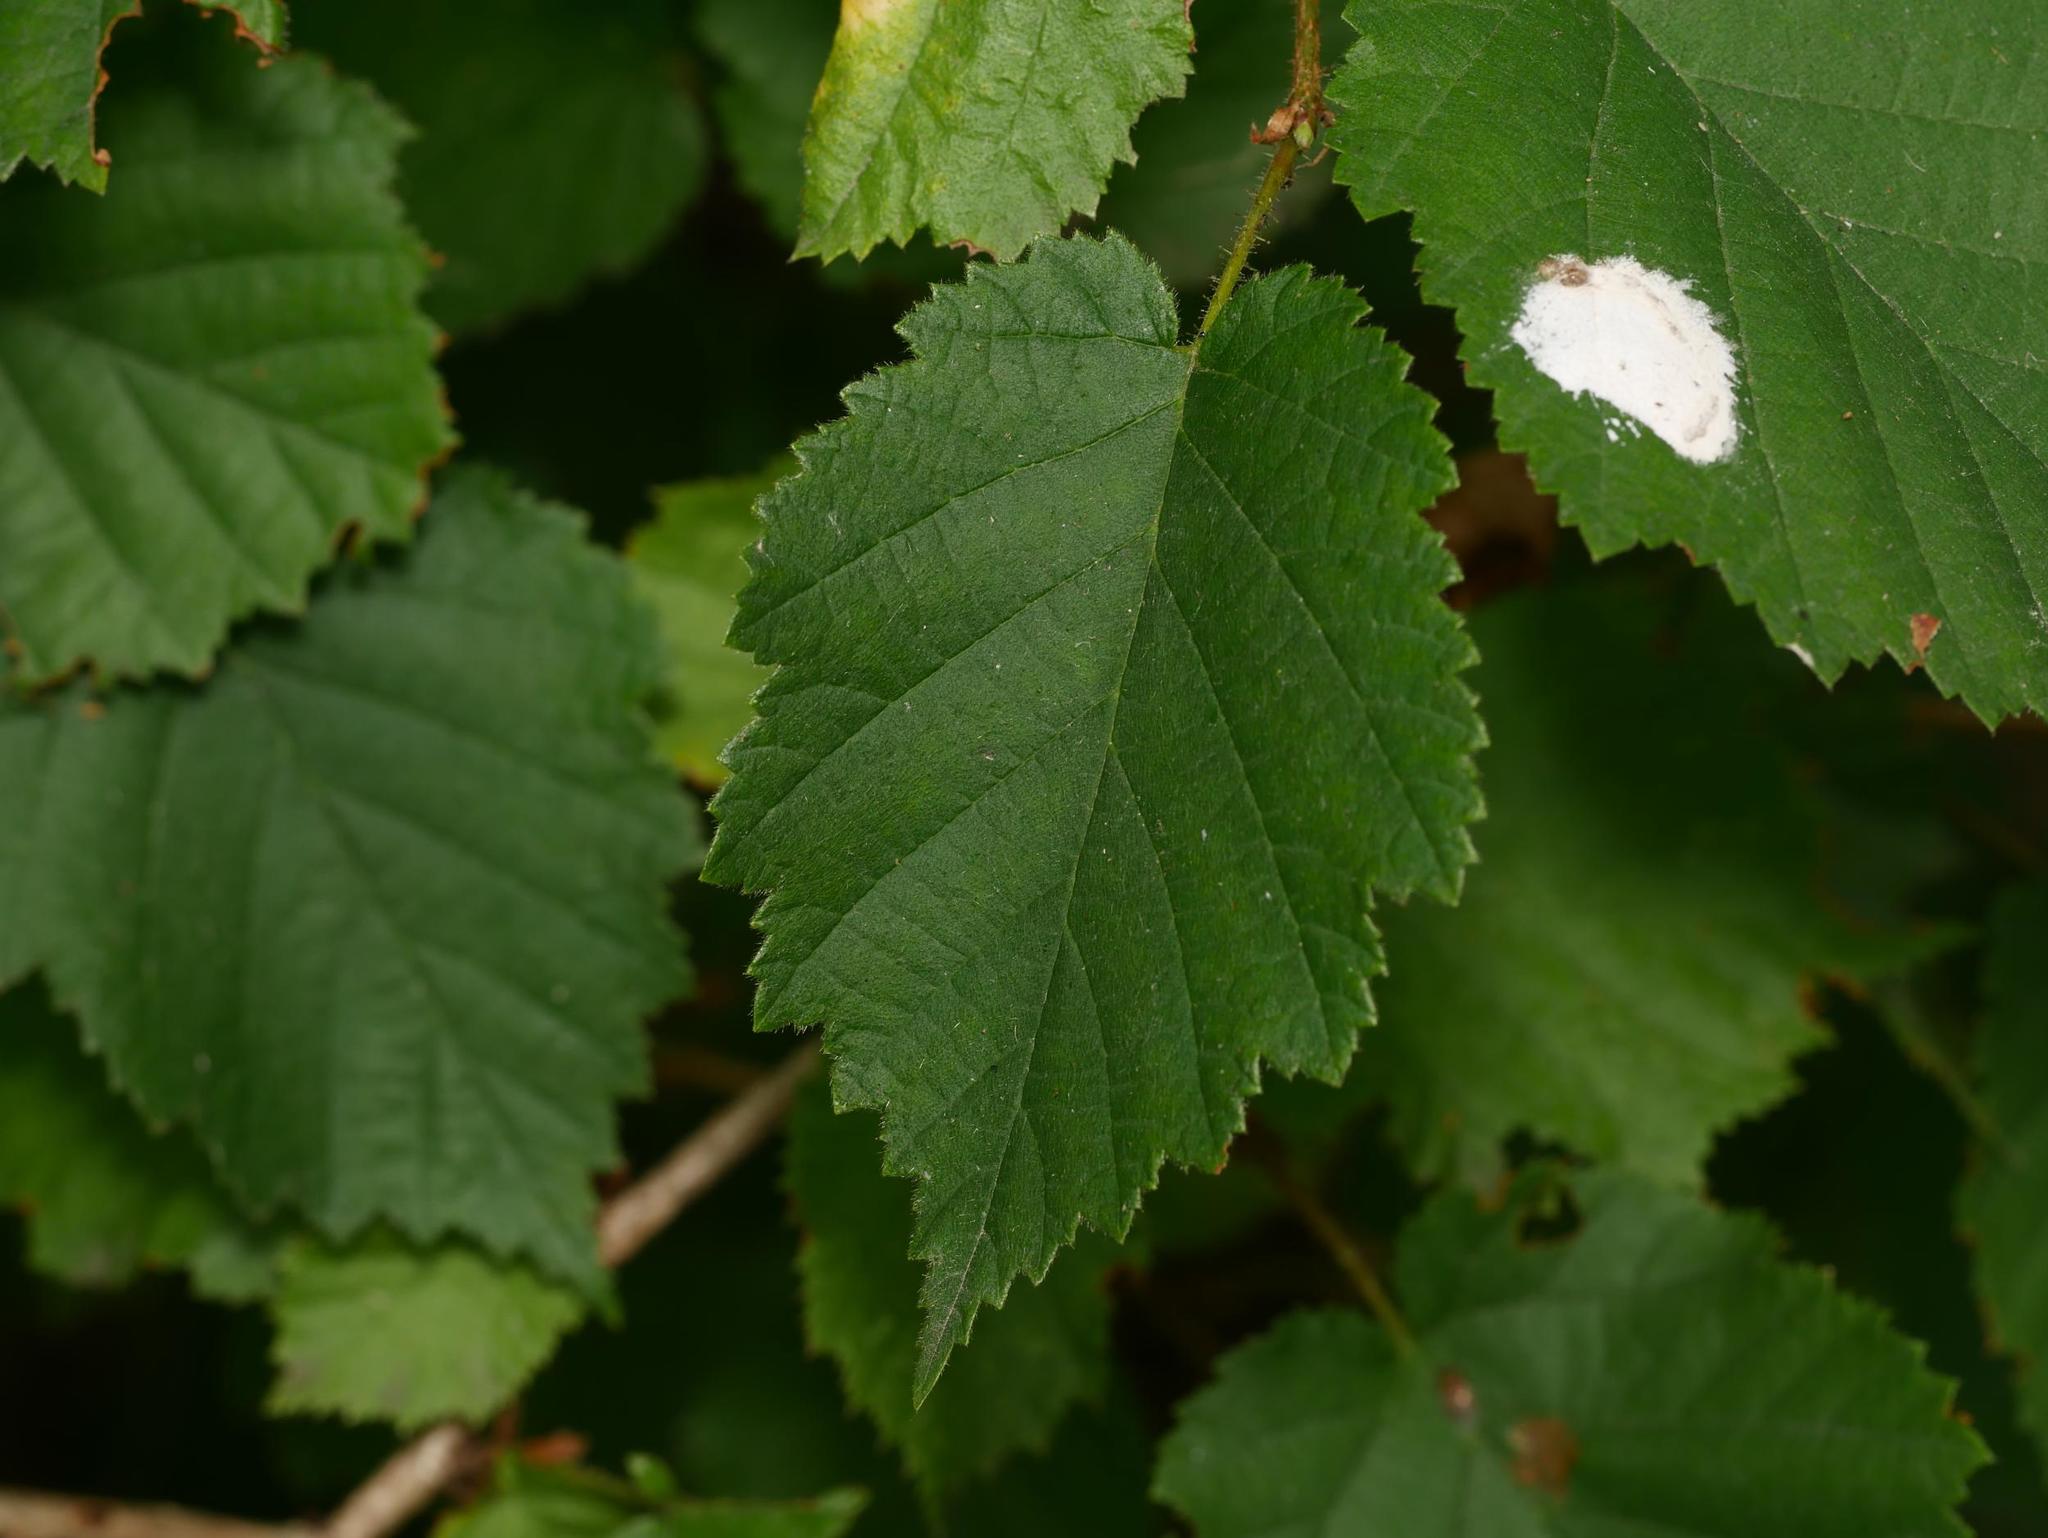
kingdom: Plantae
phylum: Tracheophyta
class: Magnoliopsida
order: Fagales
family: Betulaceae
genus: Corylus
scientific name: Corylus avellana
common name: European hazel
